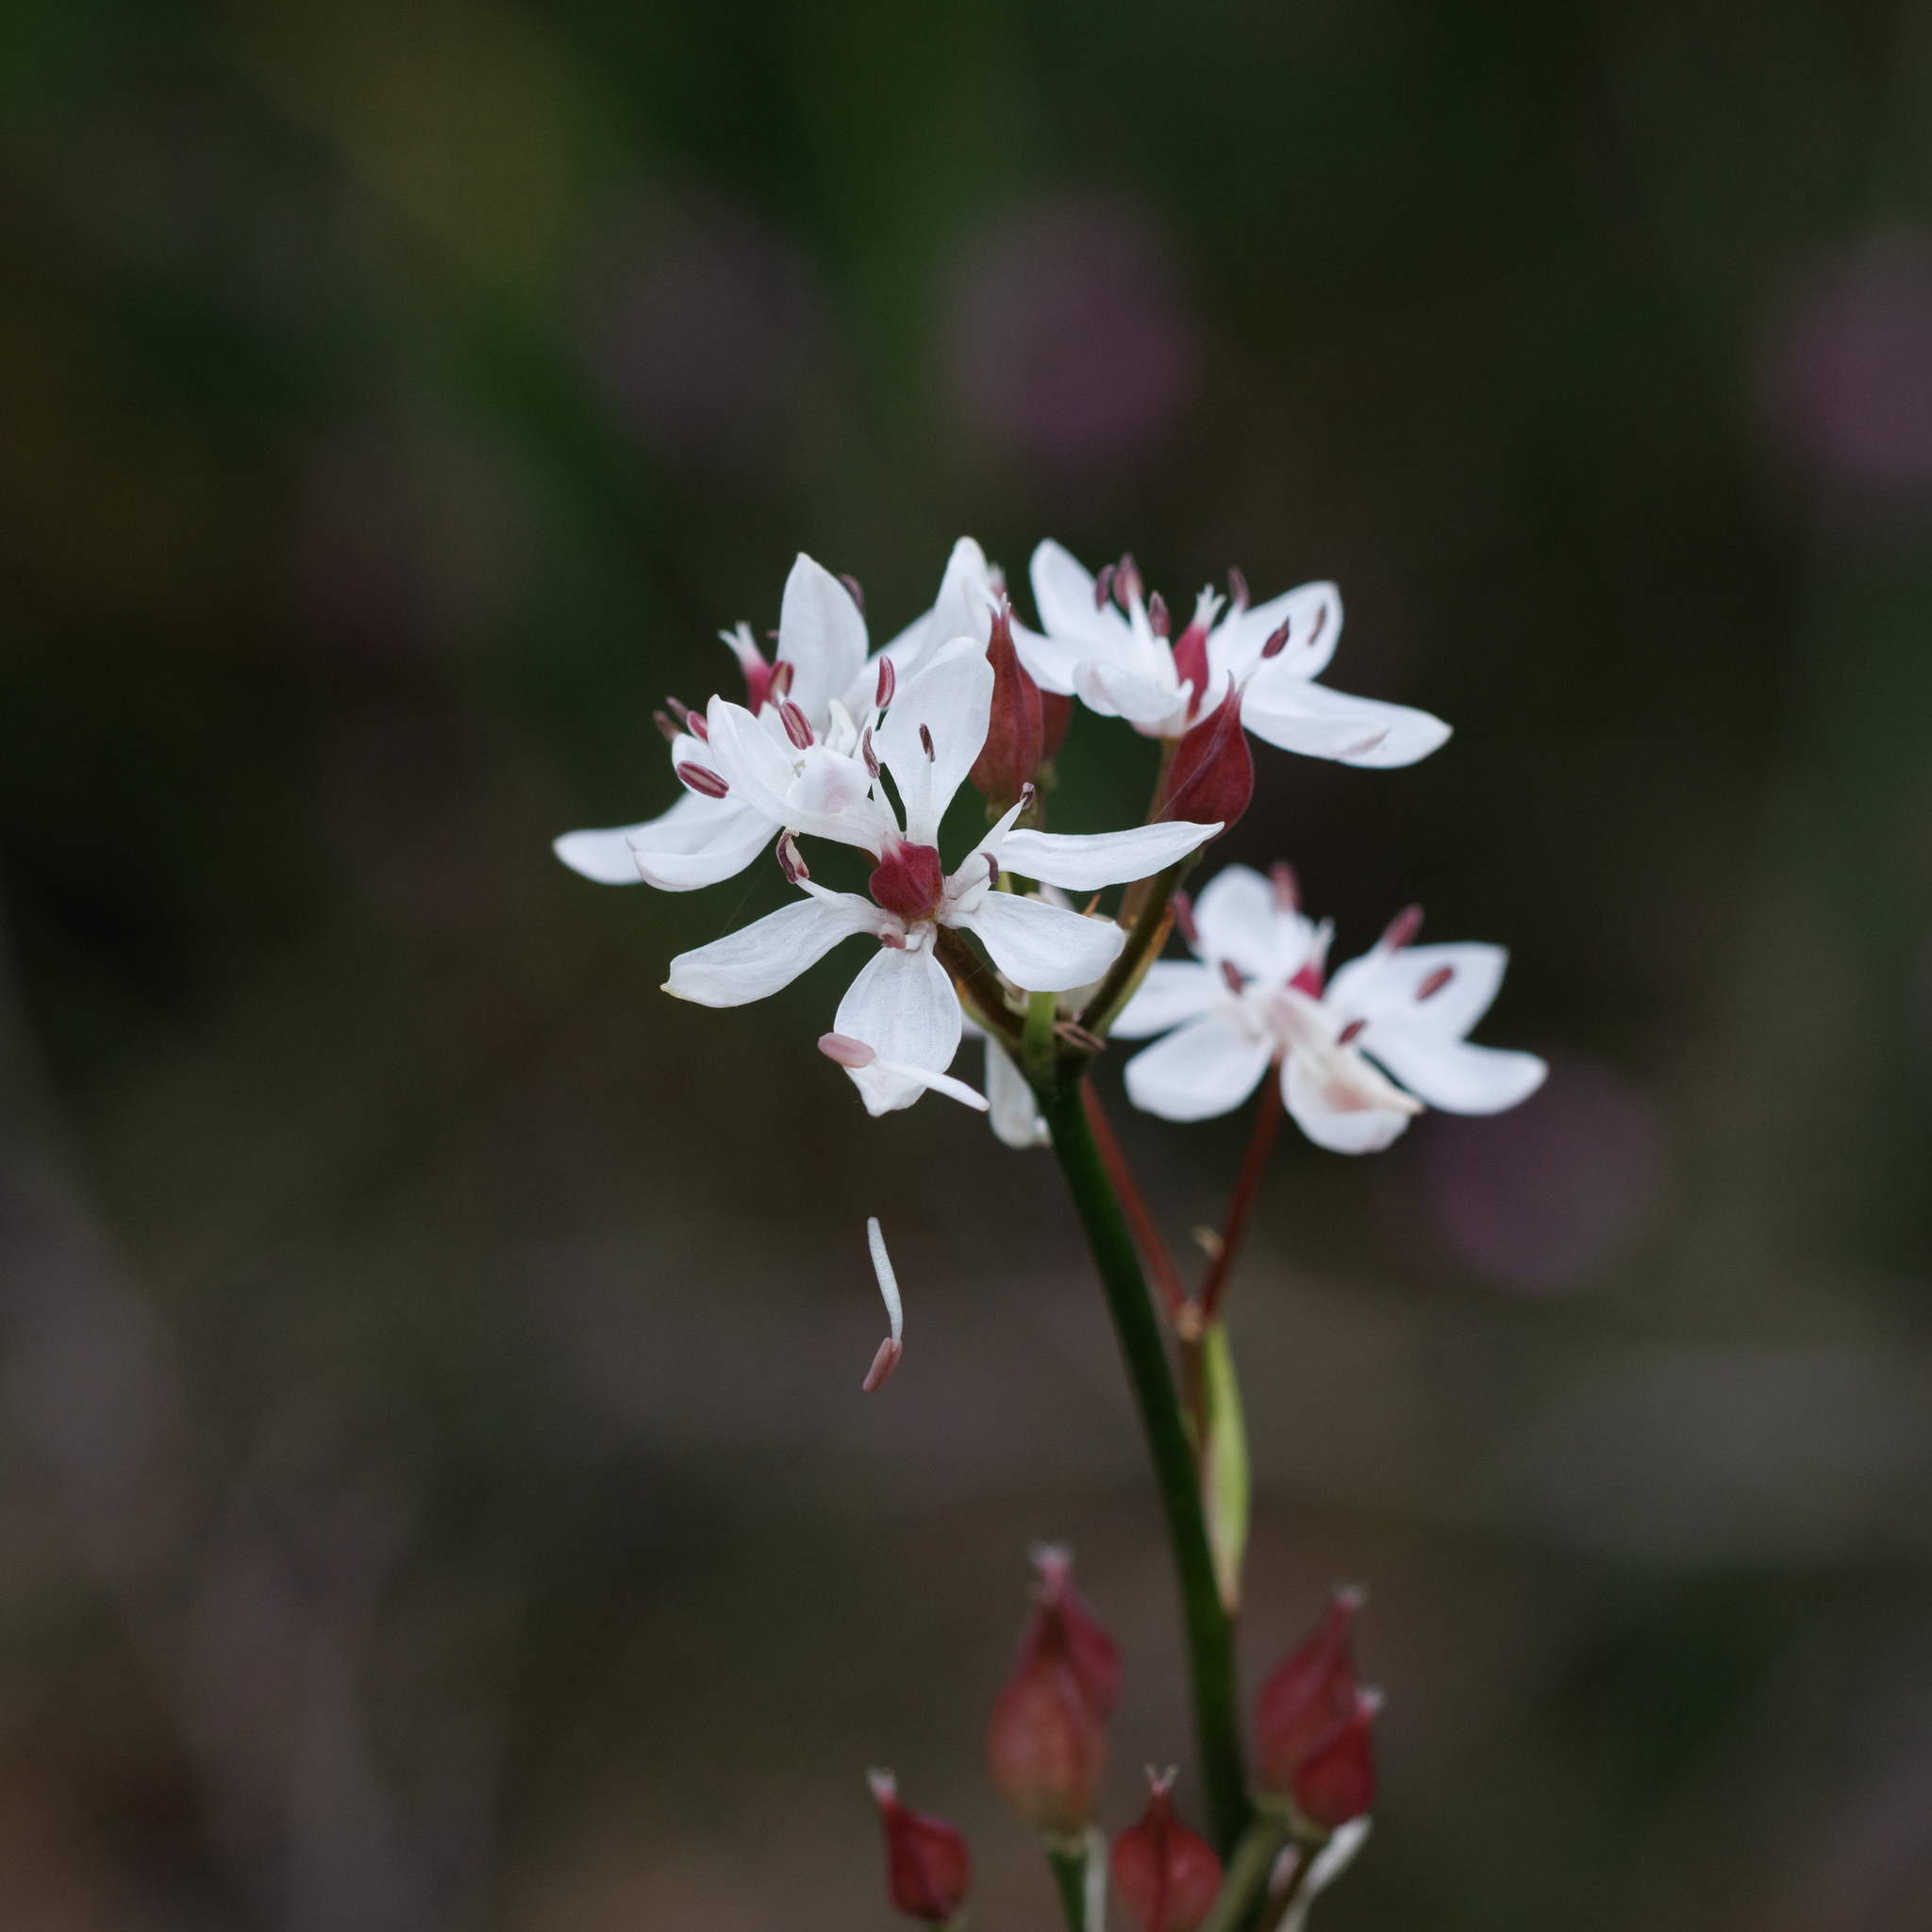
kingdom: Plantae
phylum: Tracheophyta
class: Liliopsida
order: Liliales
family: Colchicaceae
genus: Burchardia
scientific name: Burchardia umbellata
